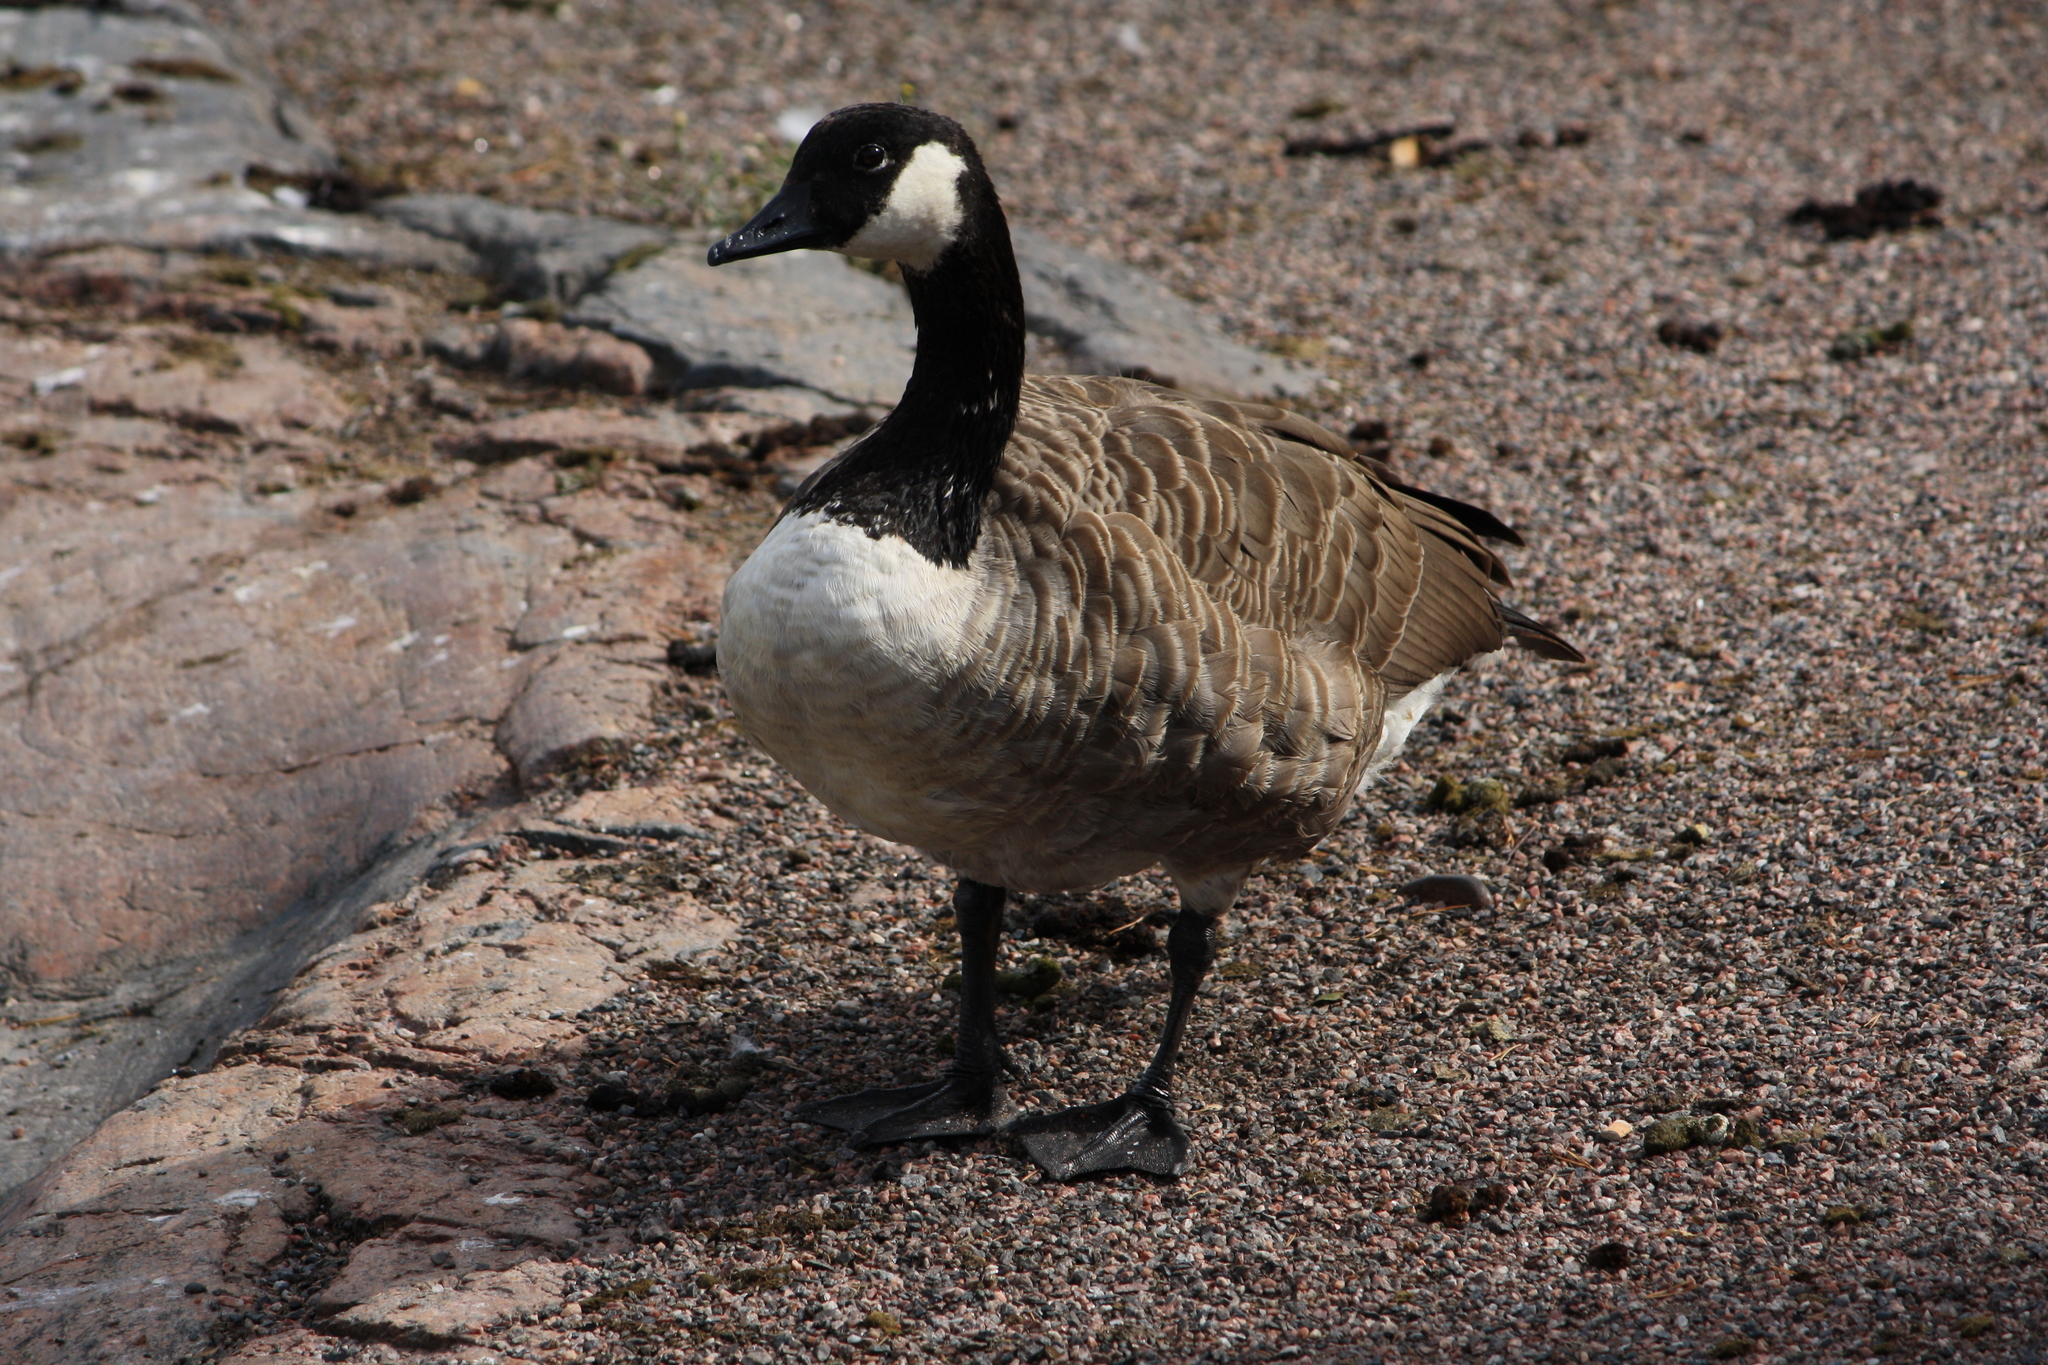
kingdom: Animalia
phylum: Chordata
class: Aves
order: Anseriformes
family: Anatidae
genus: Branta
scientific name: Branta canadensis
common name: Canada goose
